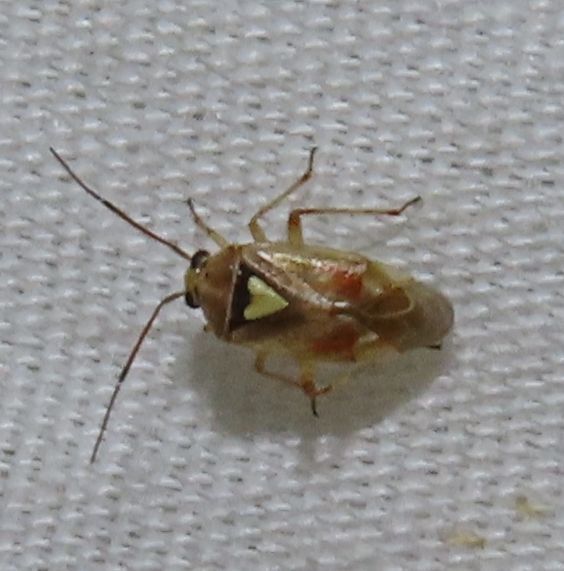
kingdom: Animalia
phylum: Arthropoda
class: Insecta
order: Hemiptera
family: Miridae
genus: Lygus
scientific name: Lygus hesperus
